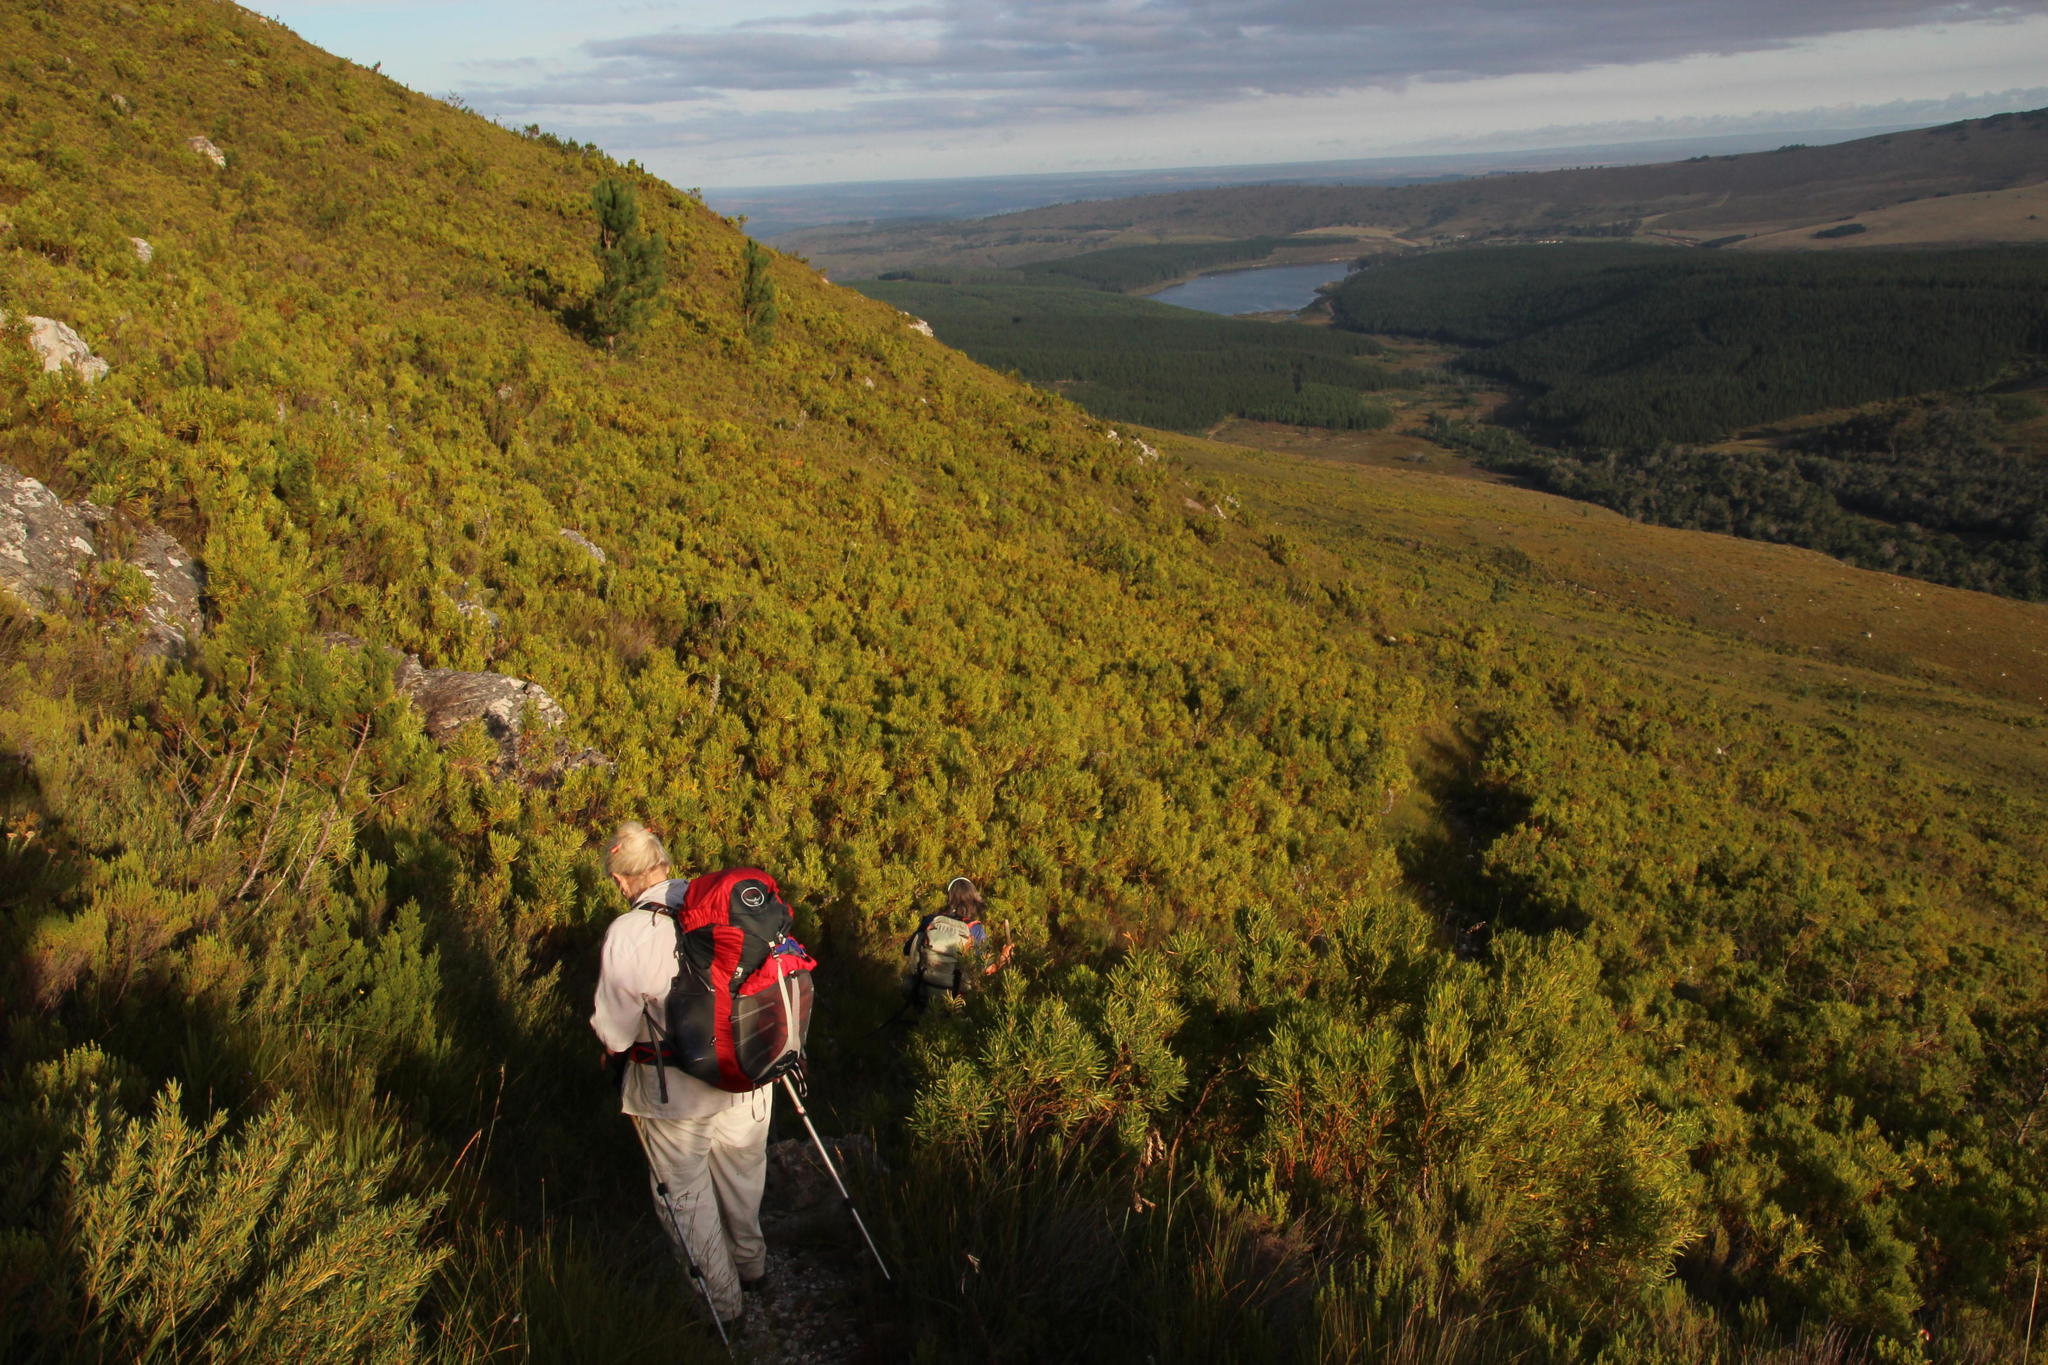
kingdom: Plantae
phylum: Tracheophyta
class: Pinopsida
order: Pinales
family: Pinaceae
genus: Pinus
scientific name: Pinus pinaster
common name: Maritime pine
